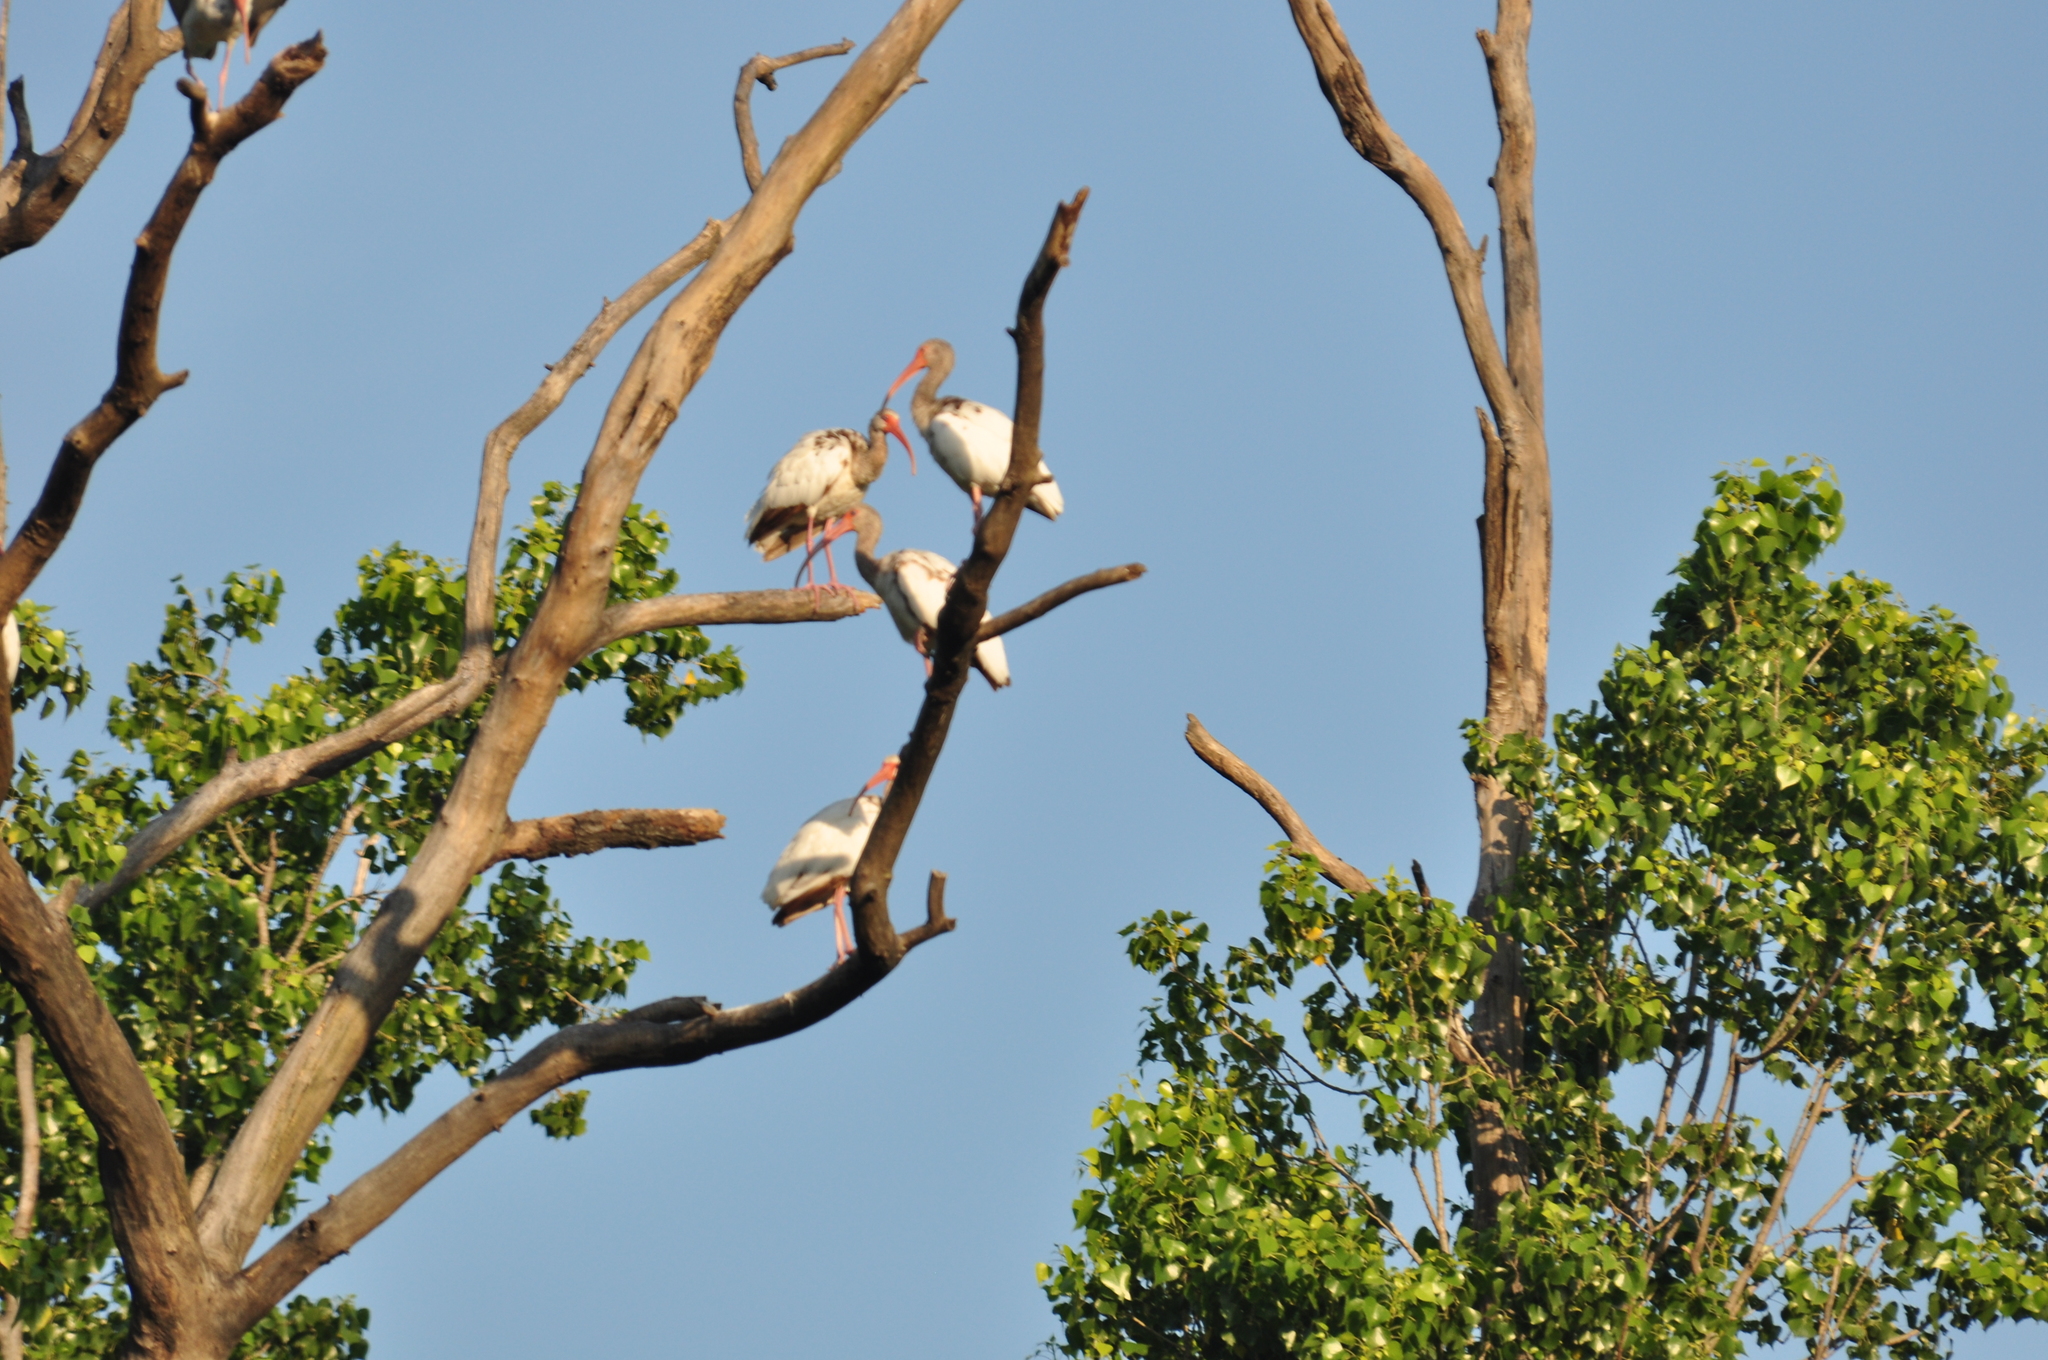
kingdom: Animalia
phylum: Chordata
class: Aves
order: Pelecaniformes
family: Threskiornithidae
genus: Eudocimus
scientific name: Eudocimus albus
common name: White ibis
